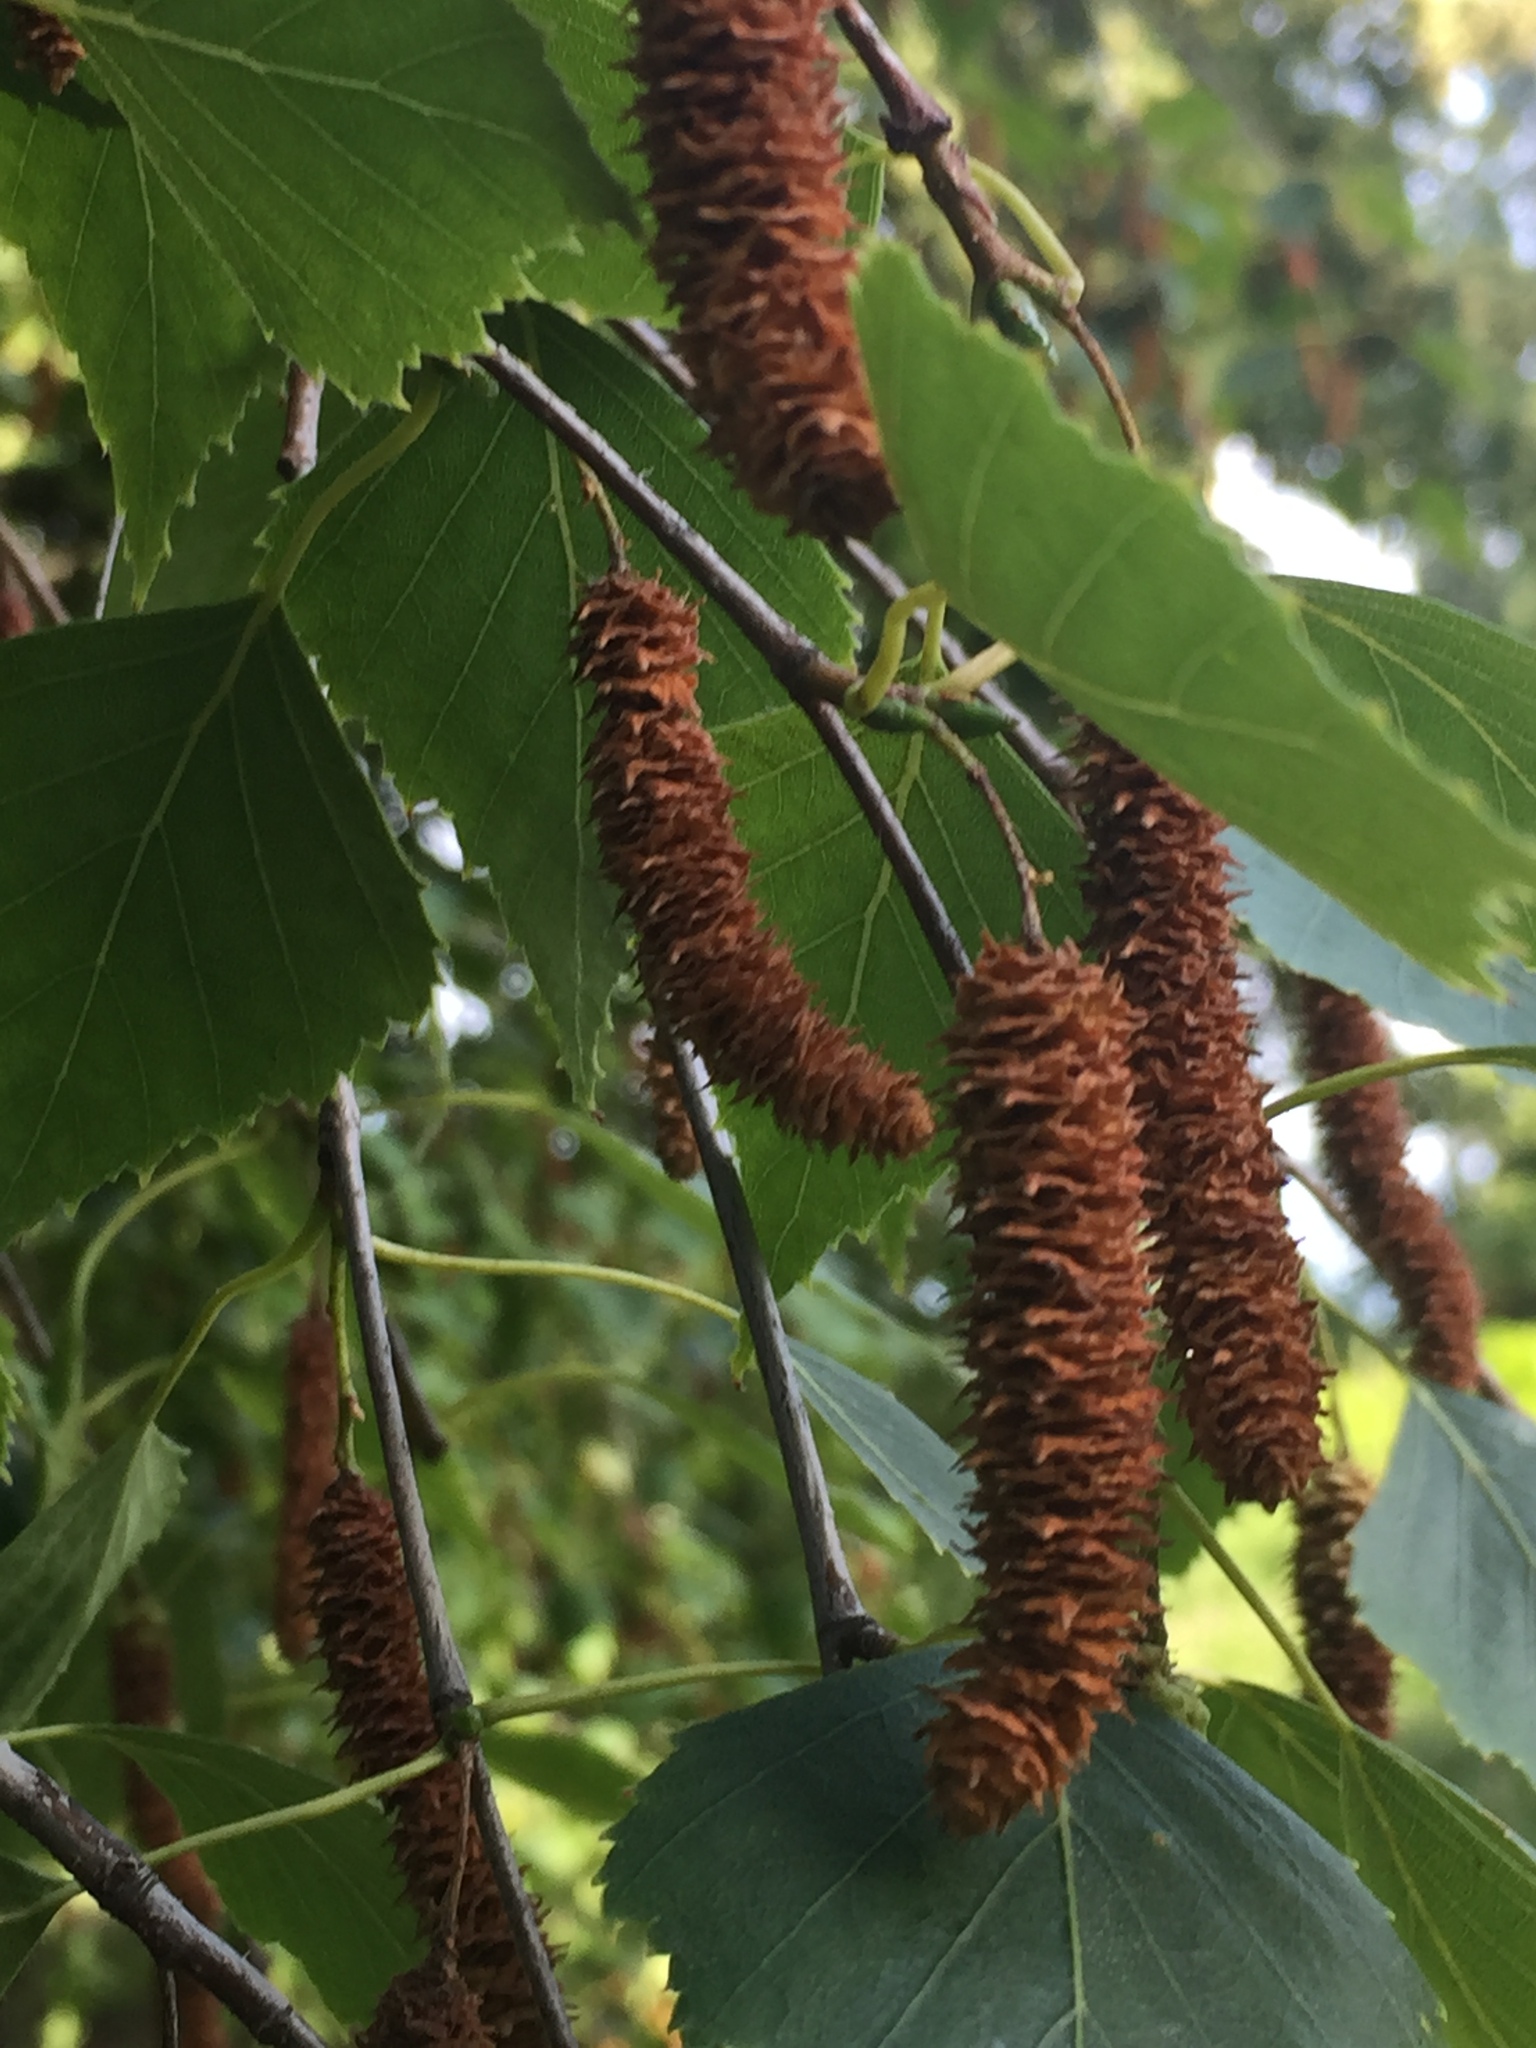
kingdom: Plantae
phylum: Tracheophyta
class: Magnoliopsida
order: Fagales
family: Betulaceae
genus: Betula
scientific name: Betula pendula
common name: Silver birch
